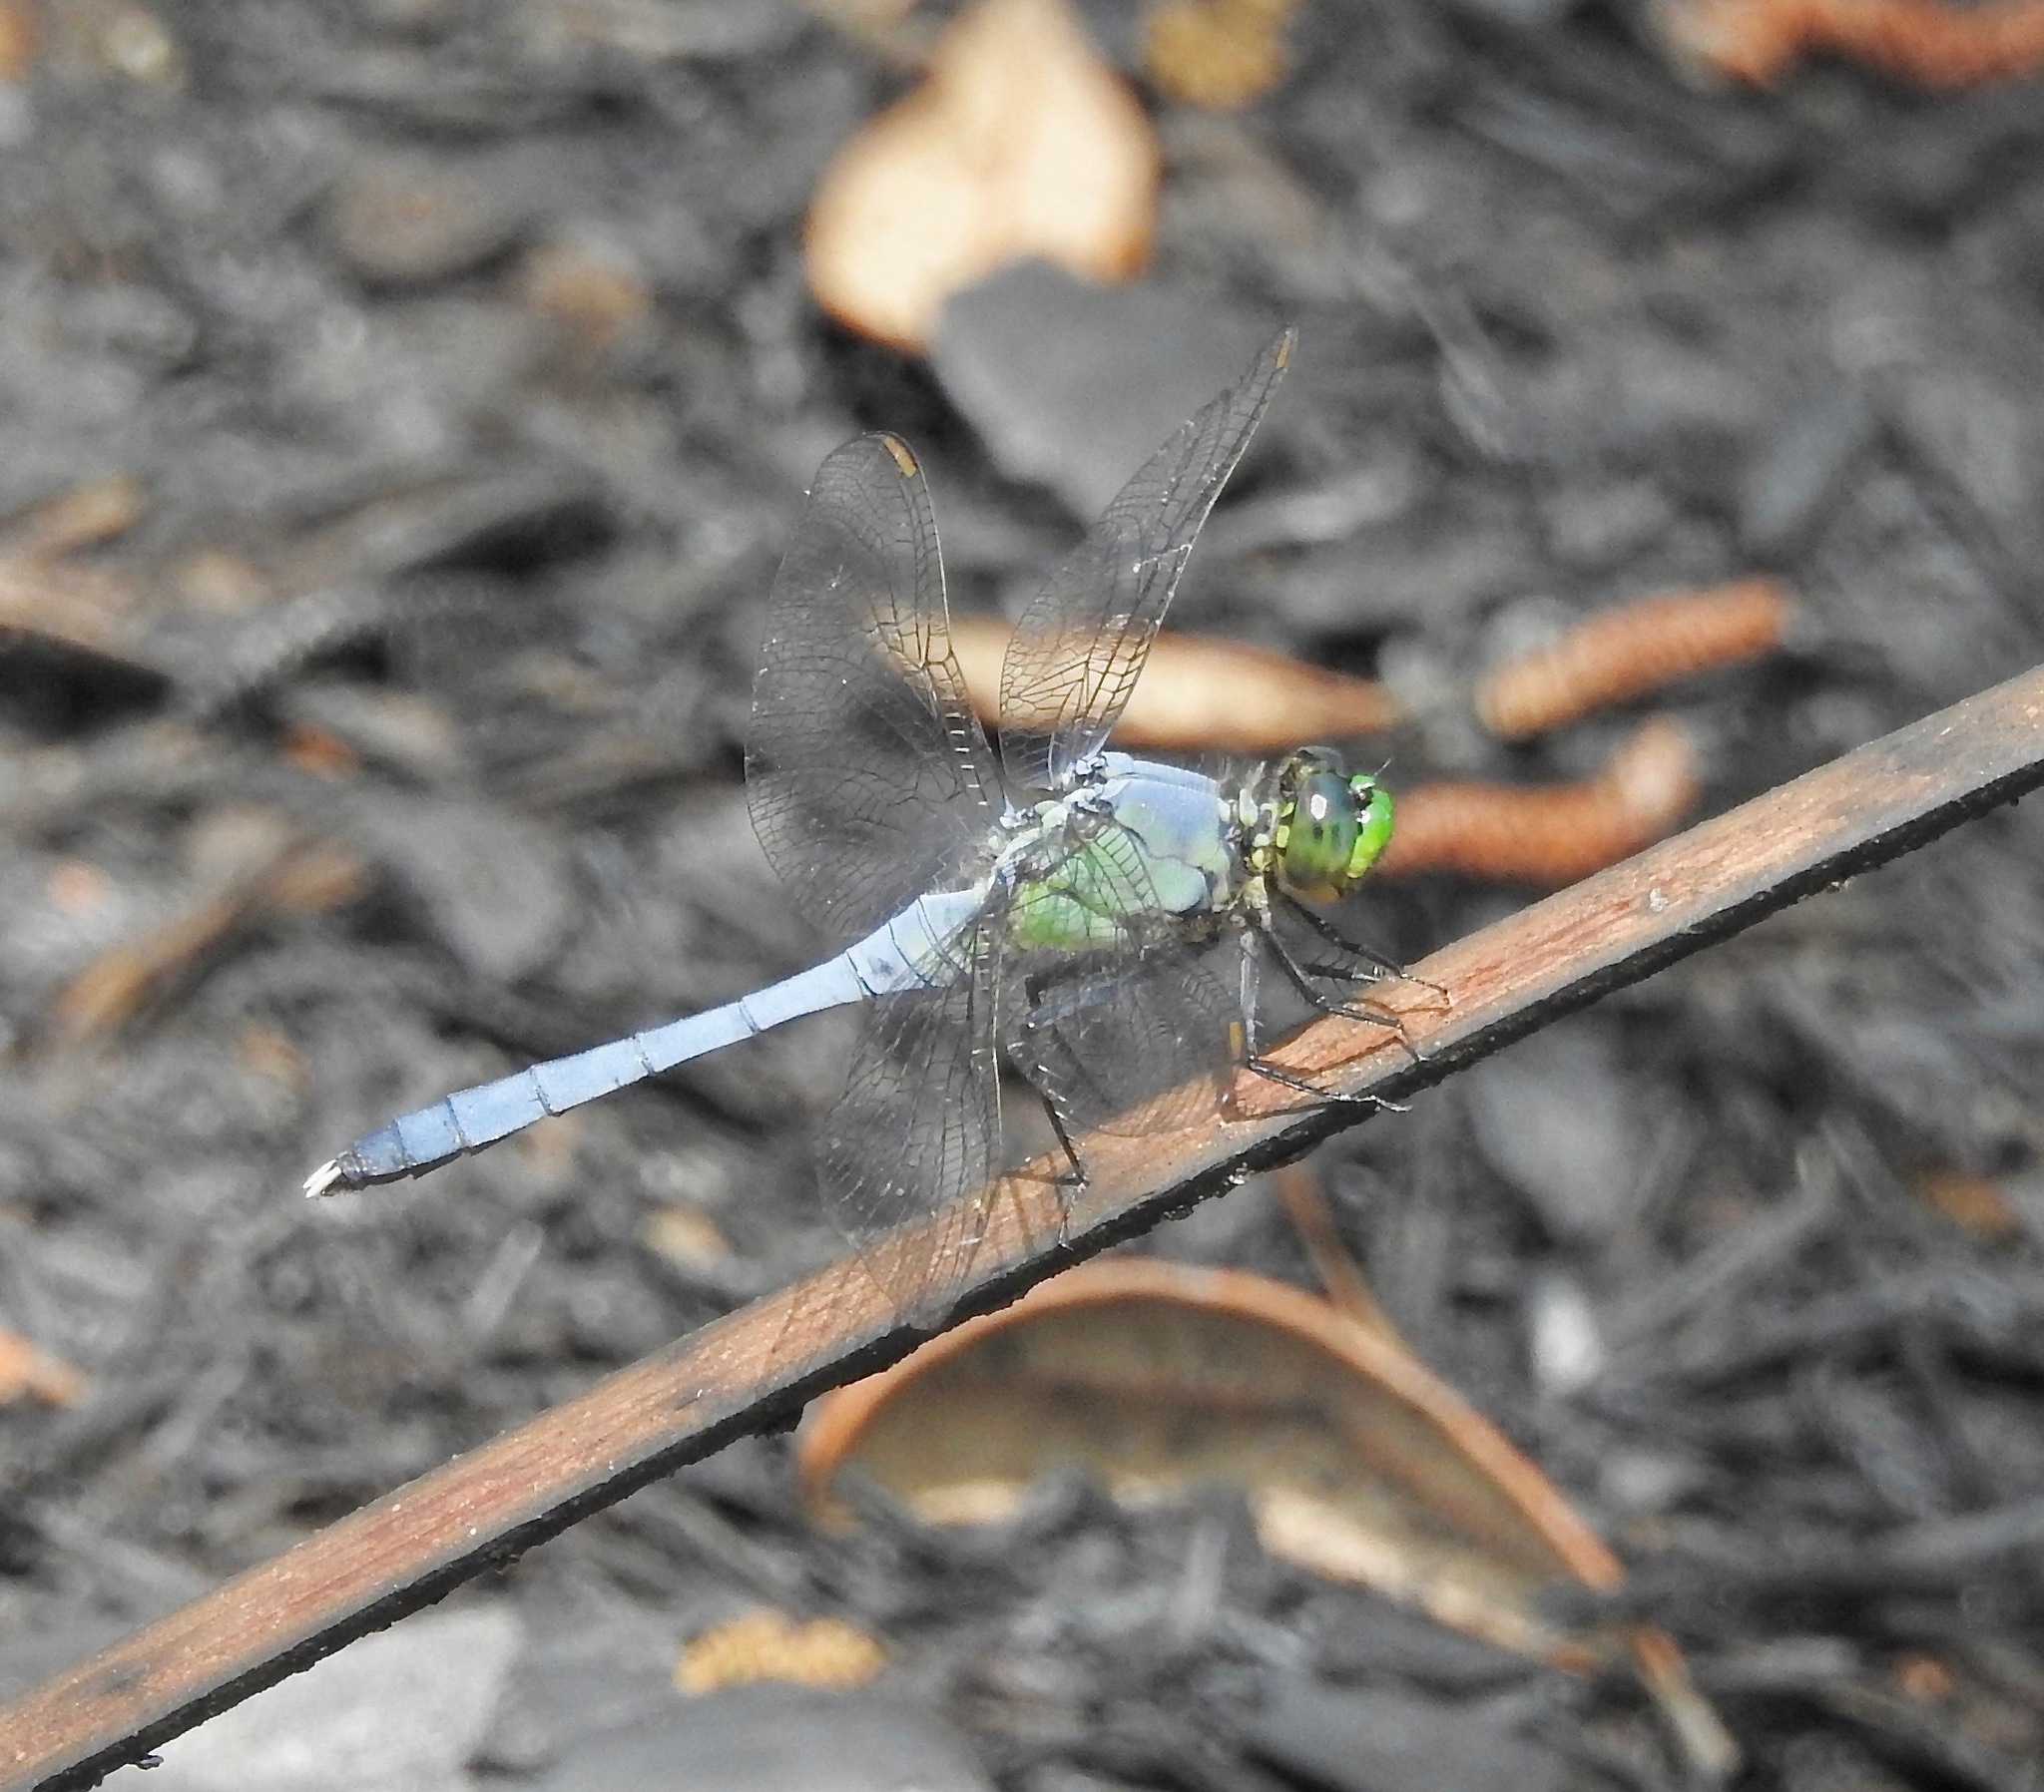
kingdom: Animalia
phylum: Arthropoda
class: Insecta
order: Odonata
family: Libellulidae
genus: Erythemis
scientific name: Erythemis simplicicollis
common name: Eastern pondhawk
